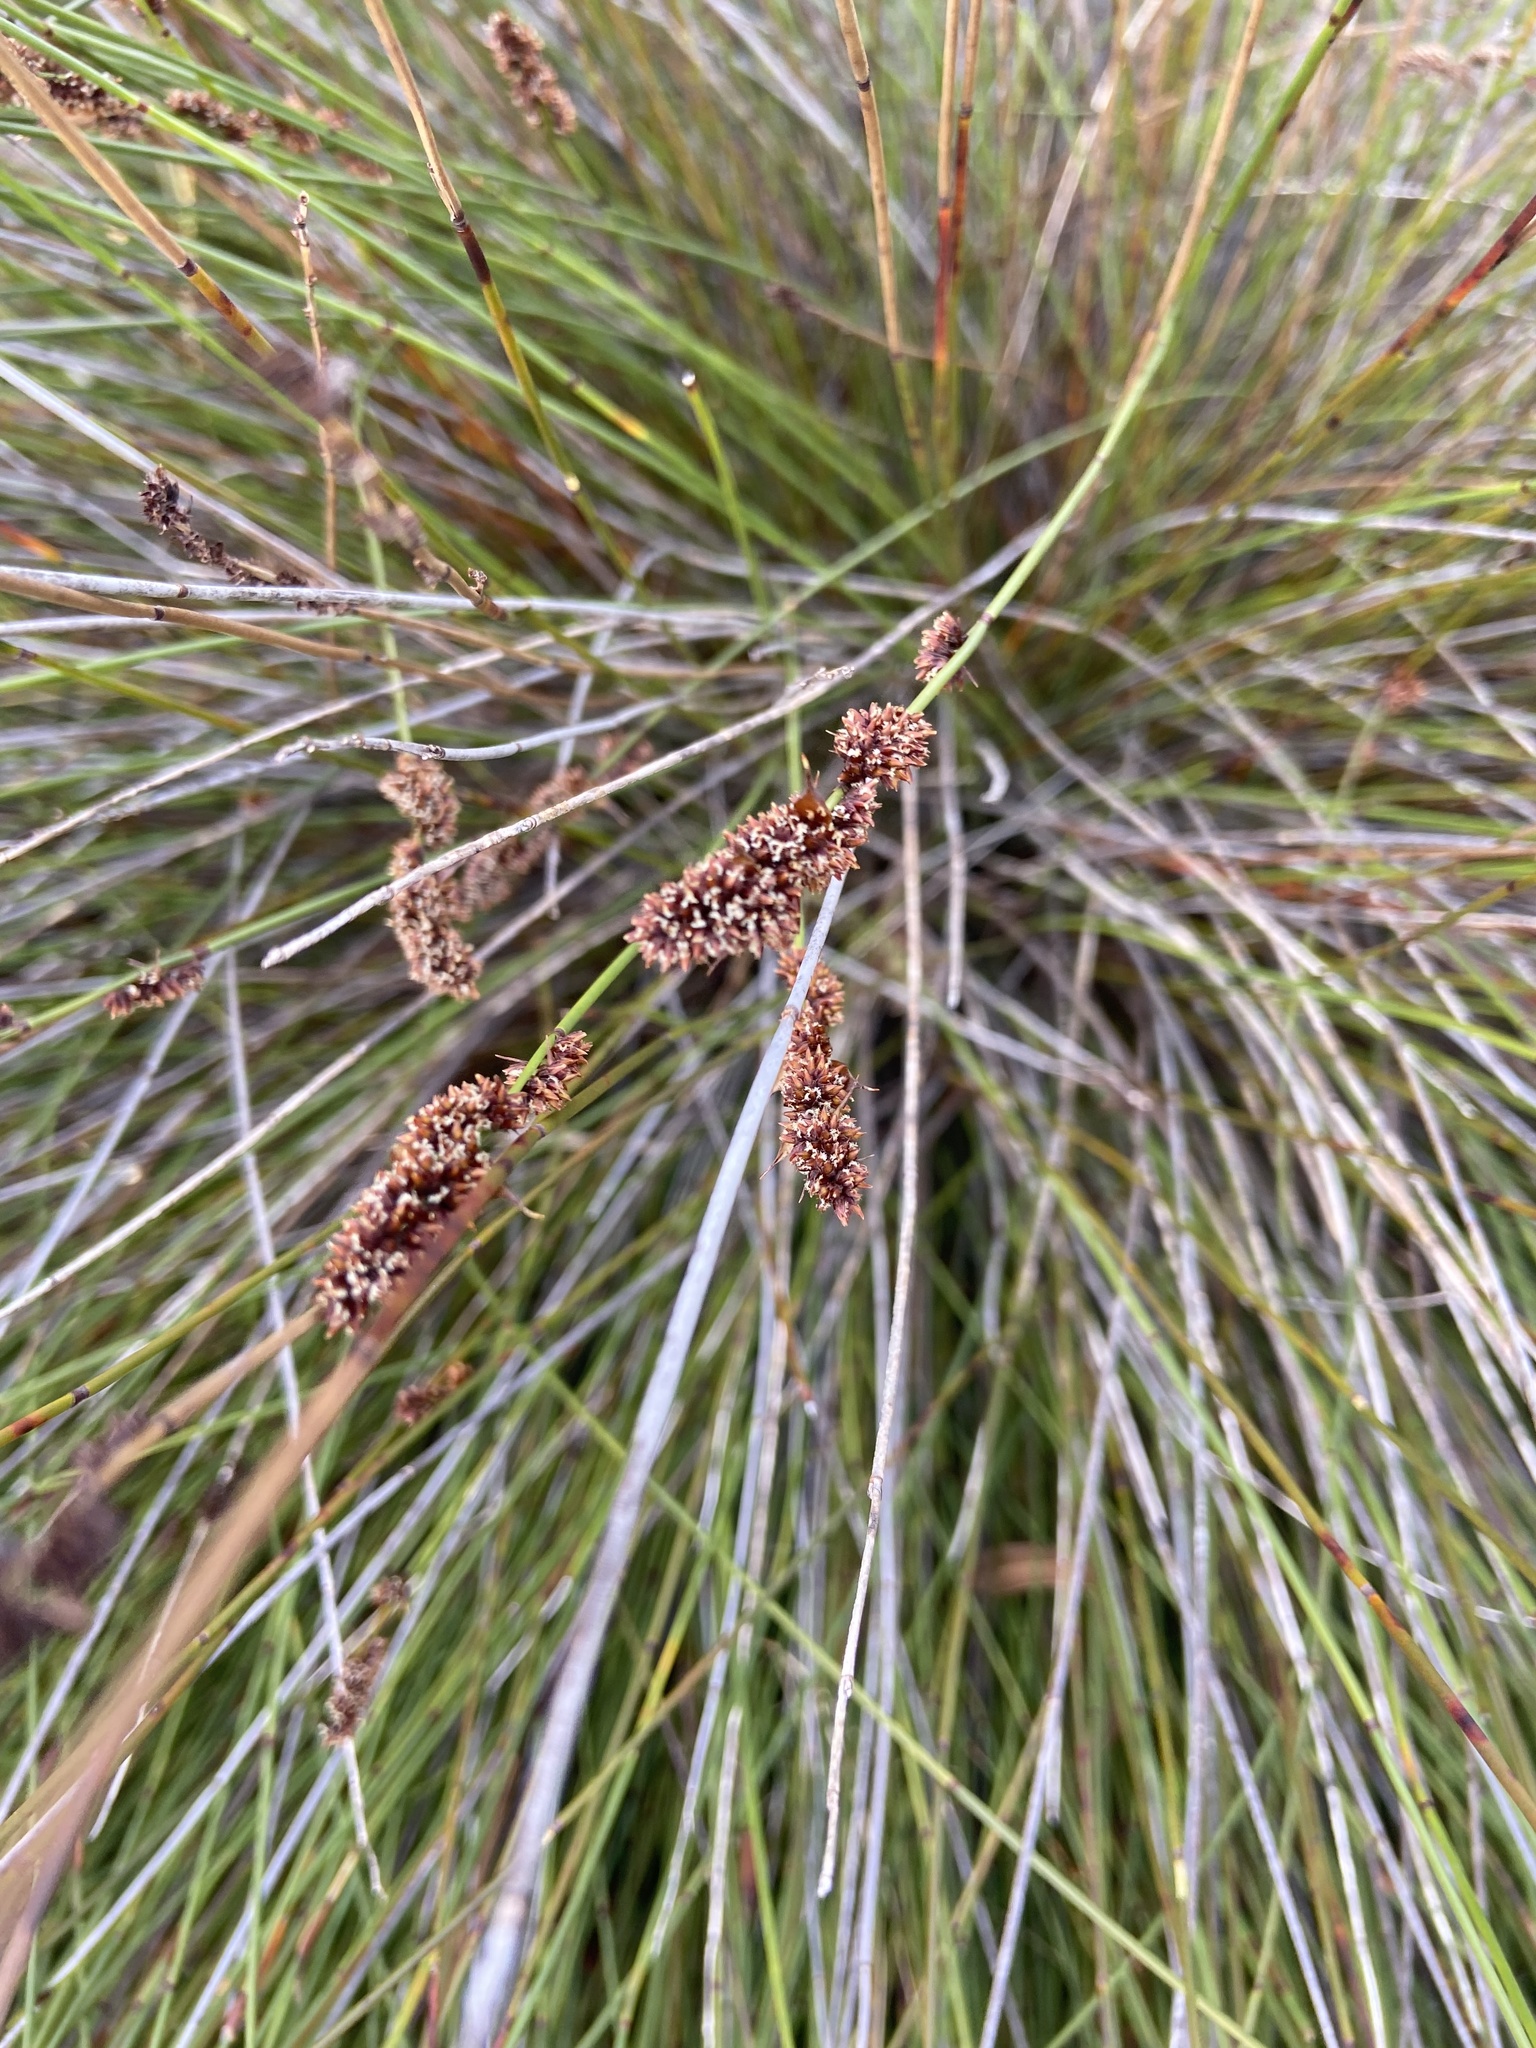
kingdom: Plantae
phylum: Tracheophyta
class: Liliopsida
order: Poales
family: Restionaceae
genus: Elegia
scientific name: Elegia tectorum
